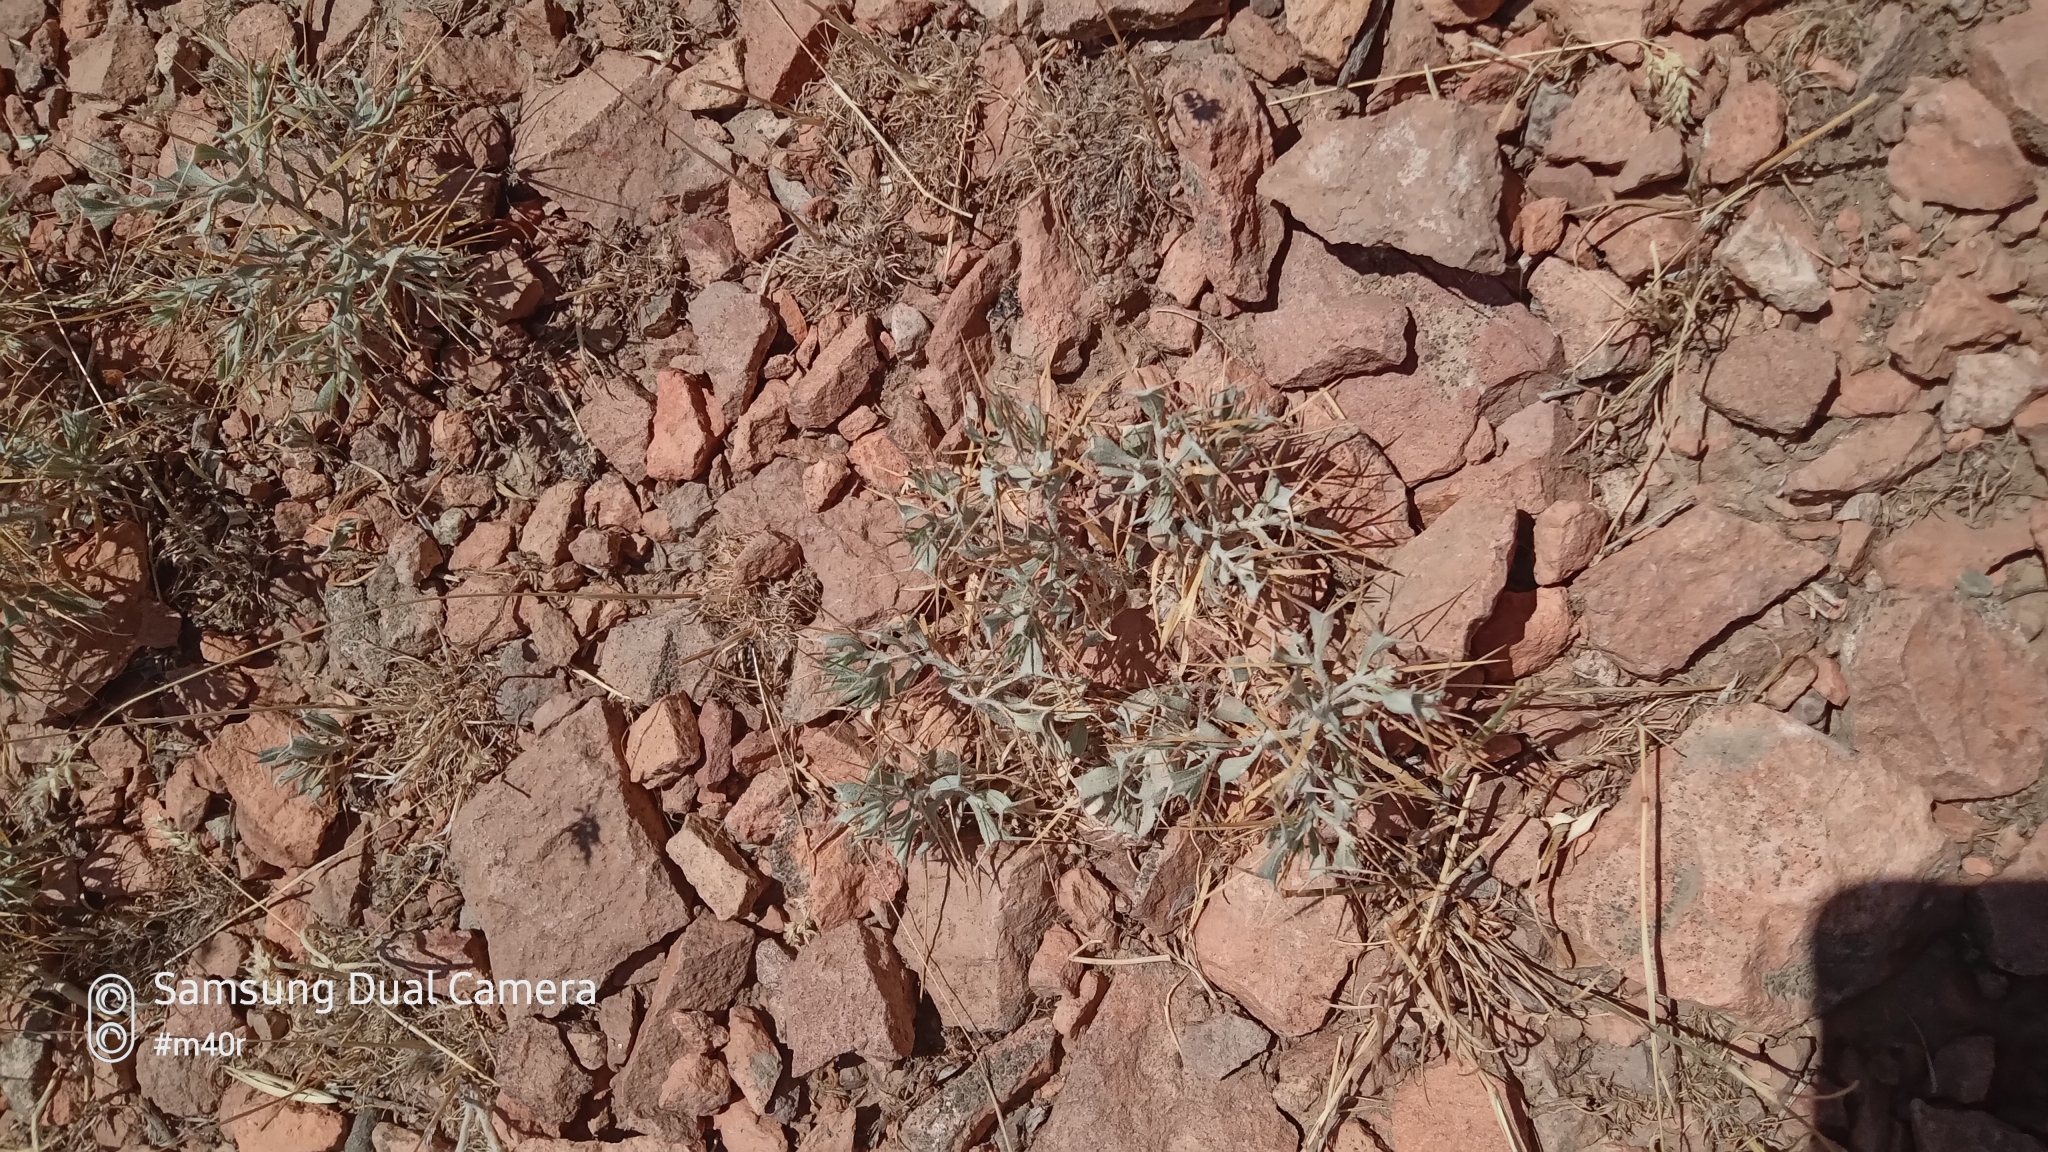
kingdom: Plantae
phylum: Tracheophyta
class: Magnoliopsida
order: Caryophyllales
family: Amaranthaceae
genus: Ceratocarpus
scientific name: Ceratocarpus arenarius
